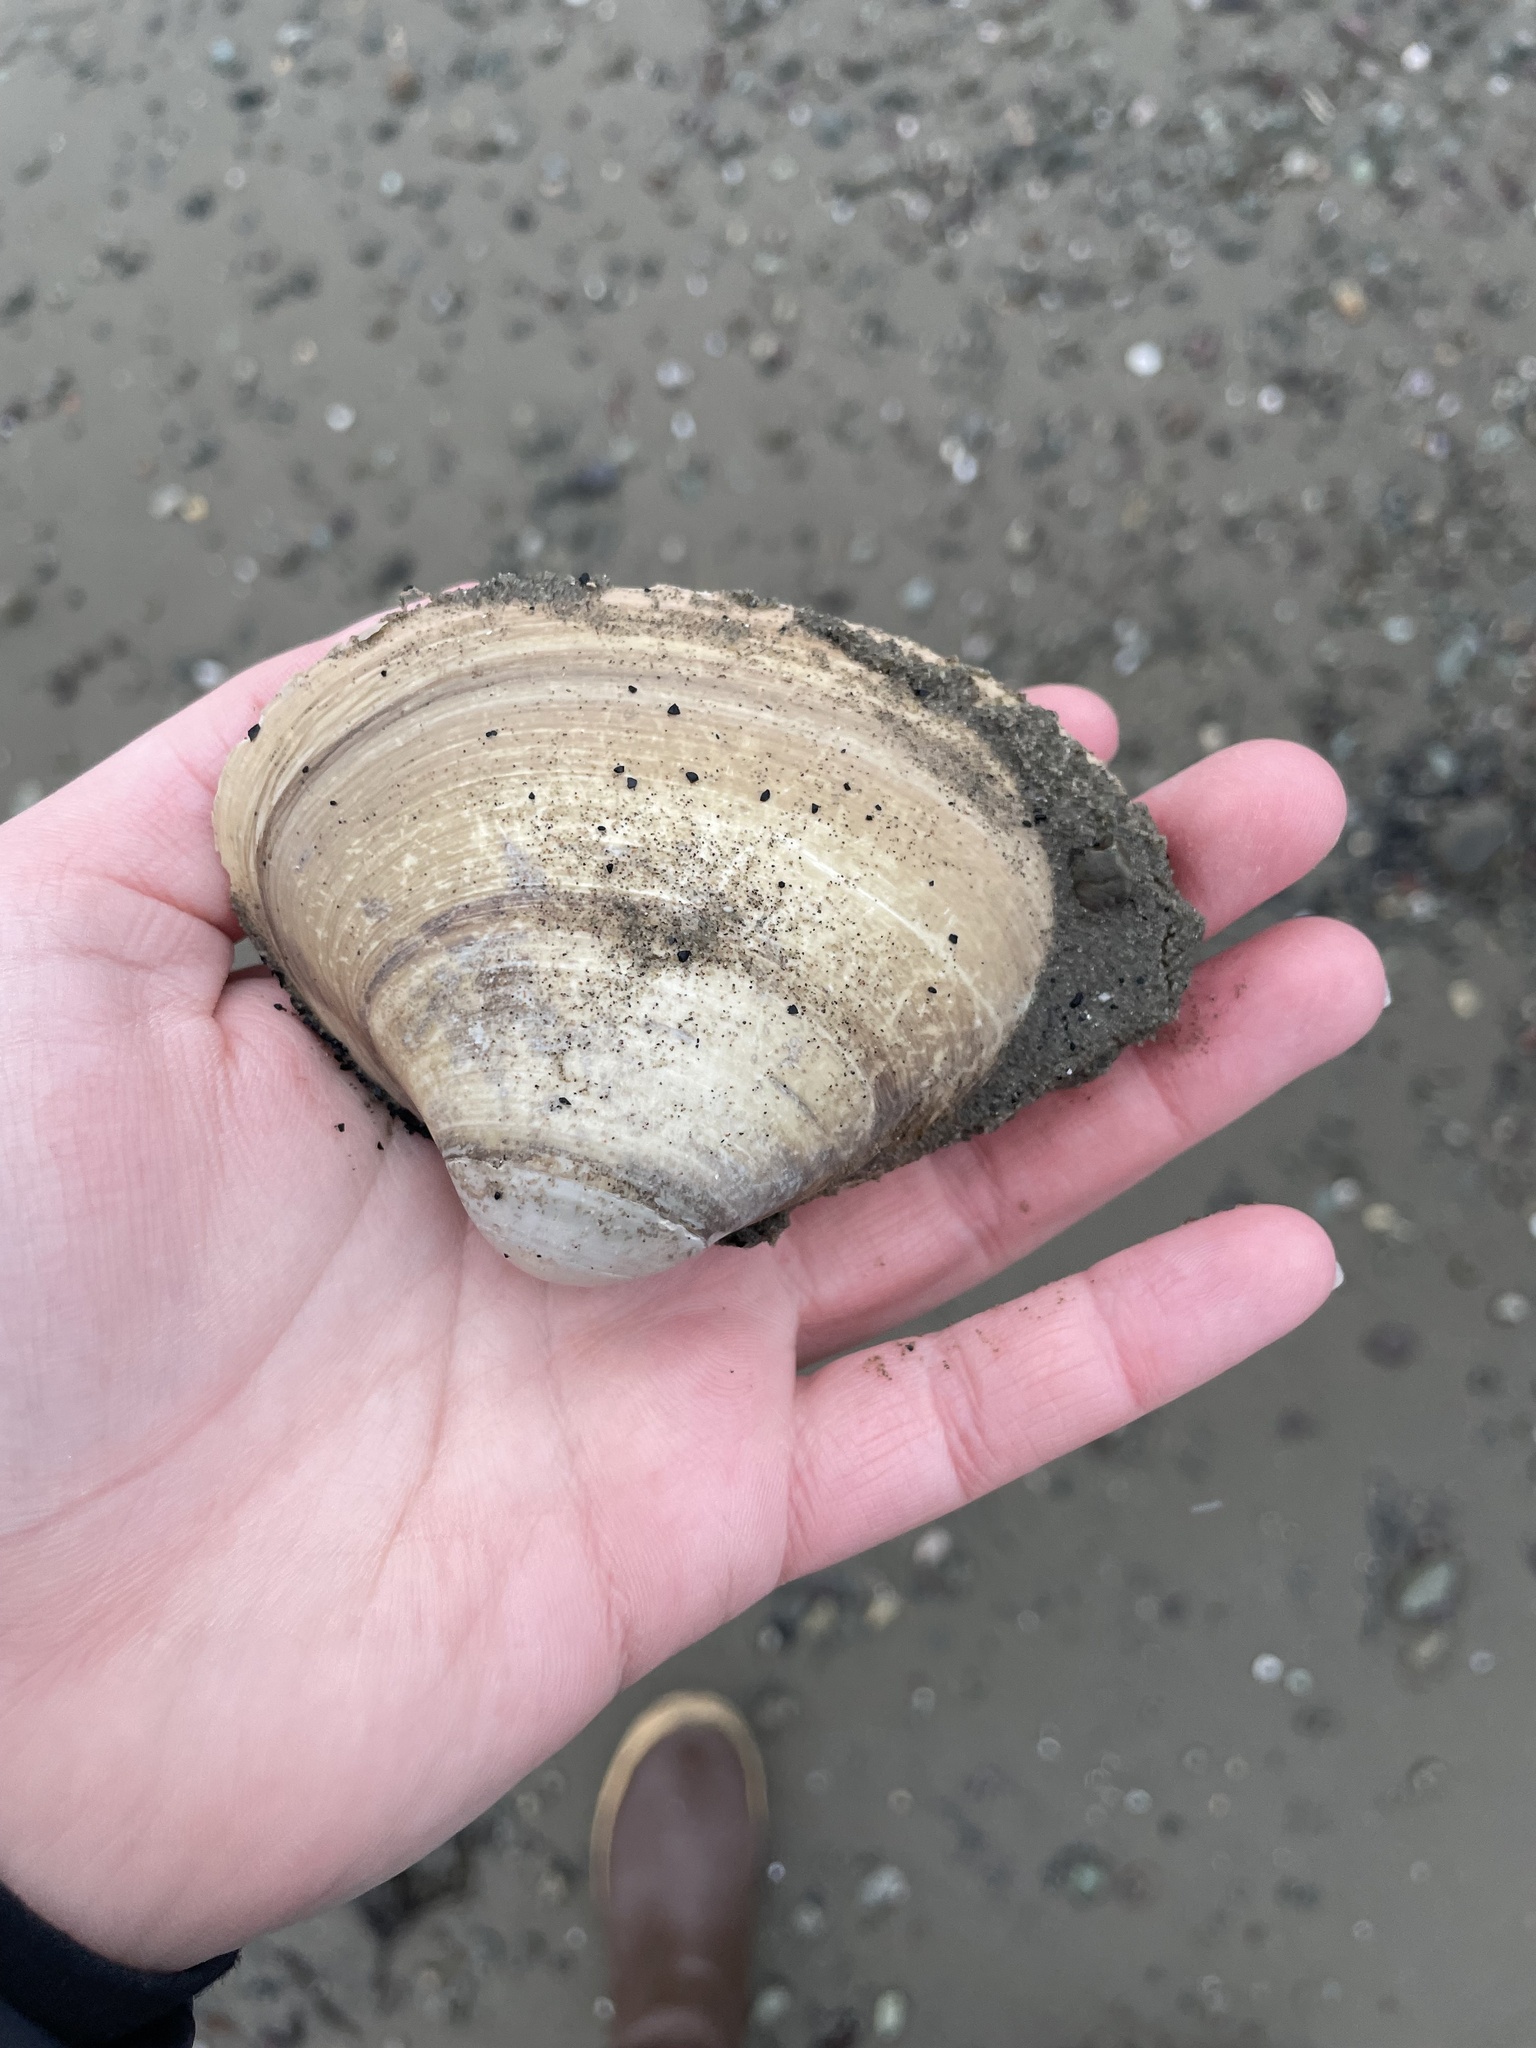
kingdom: Animalia
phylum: Mollusca
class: Bivalvia
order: Venerida
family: Mactridae
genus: Spisula
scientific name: Spisula solidissima
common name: Atlantic surf clam
